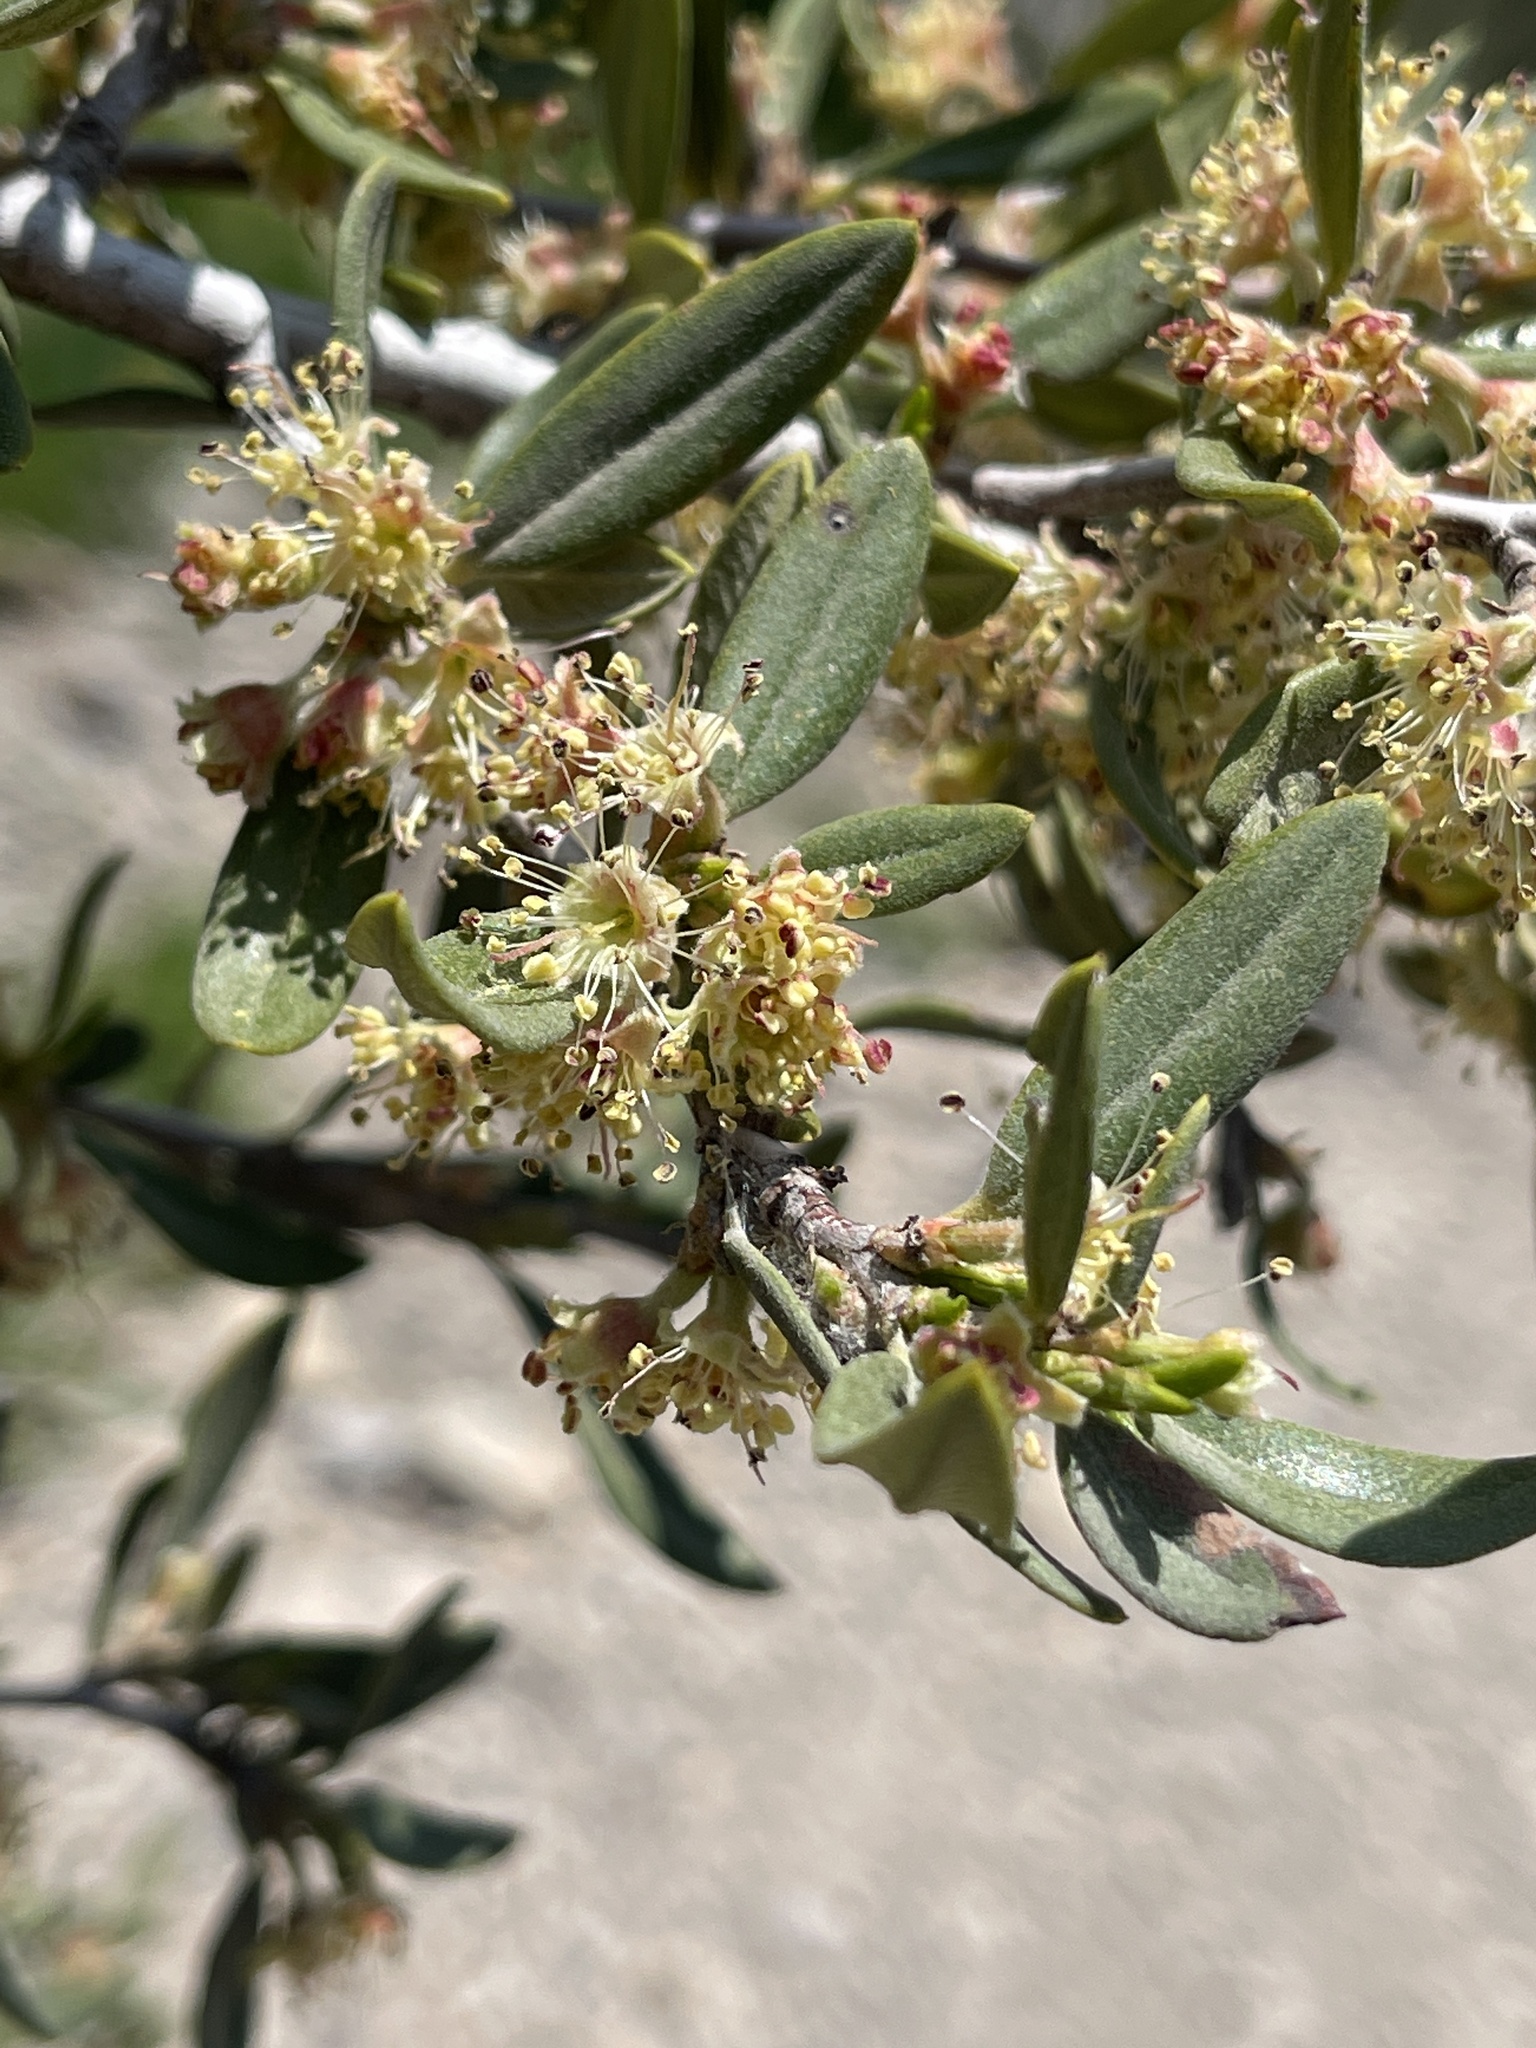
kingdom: Plantae
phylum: Tracheophyta
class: Magnoliopsida
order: Rosales
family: Rosaceae
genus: Cercocarpus
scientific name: Cercocarpus ledifolius
